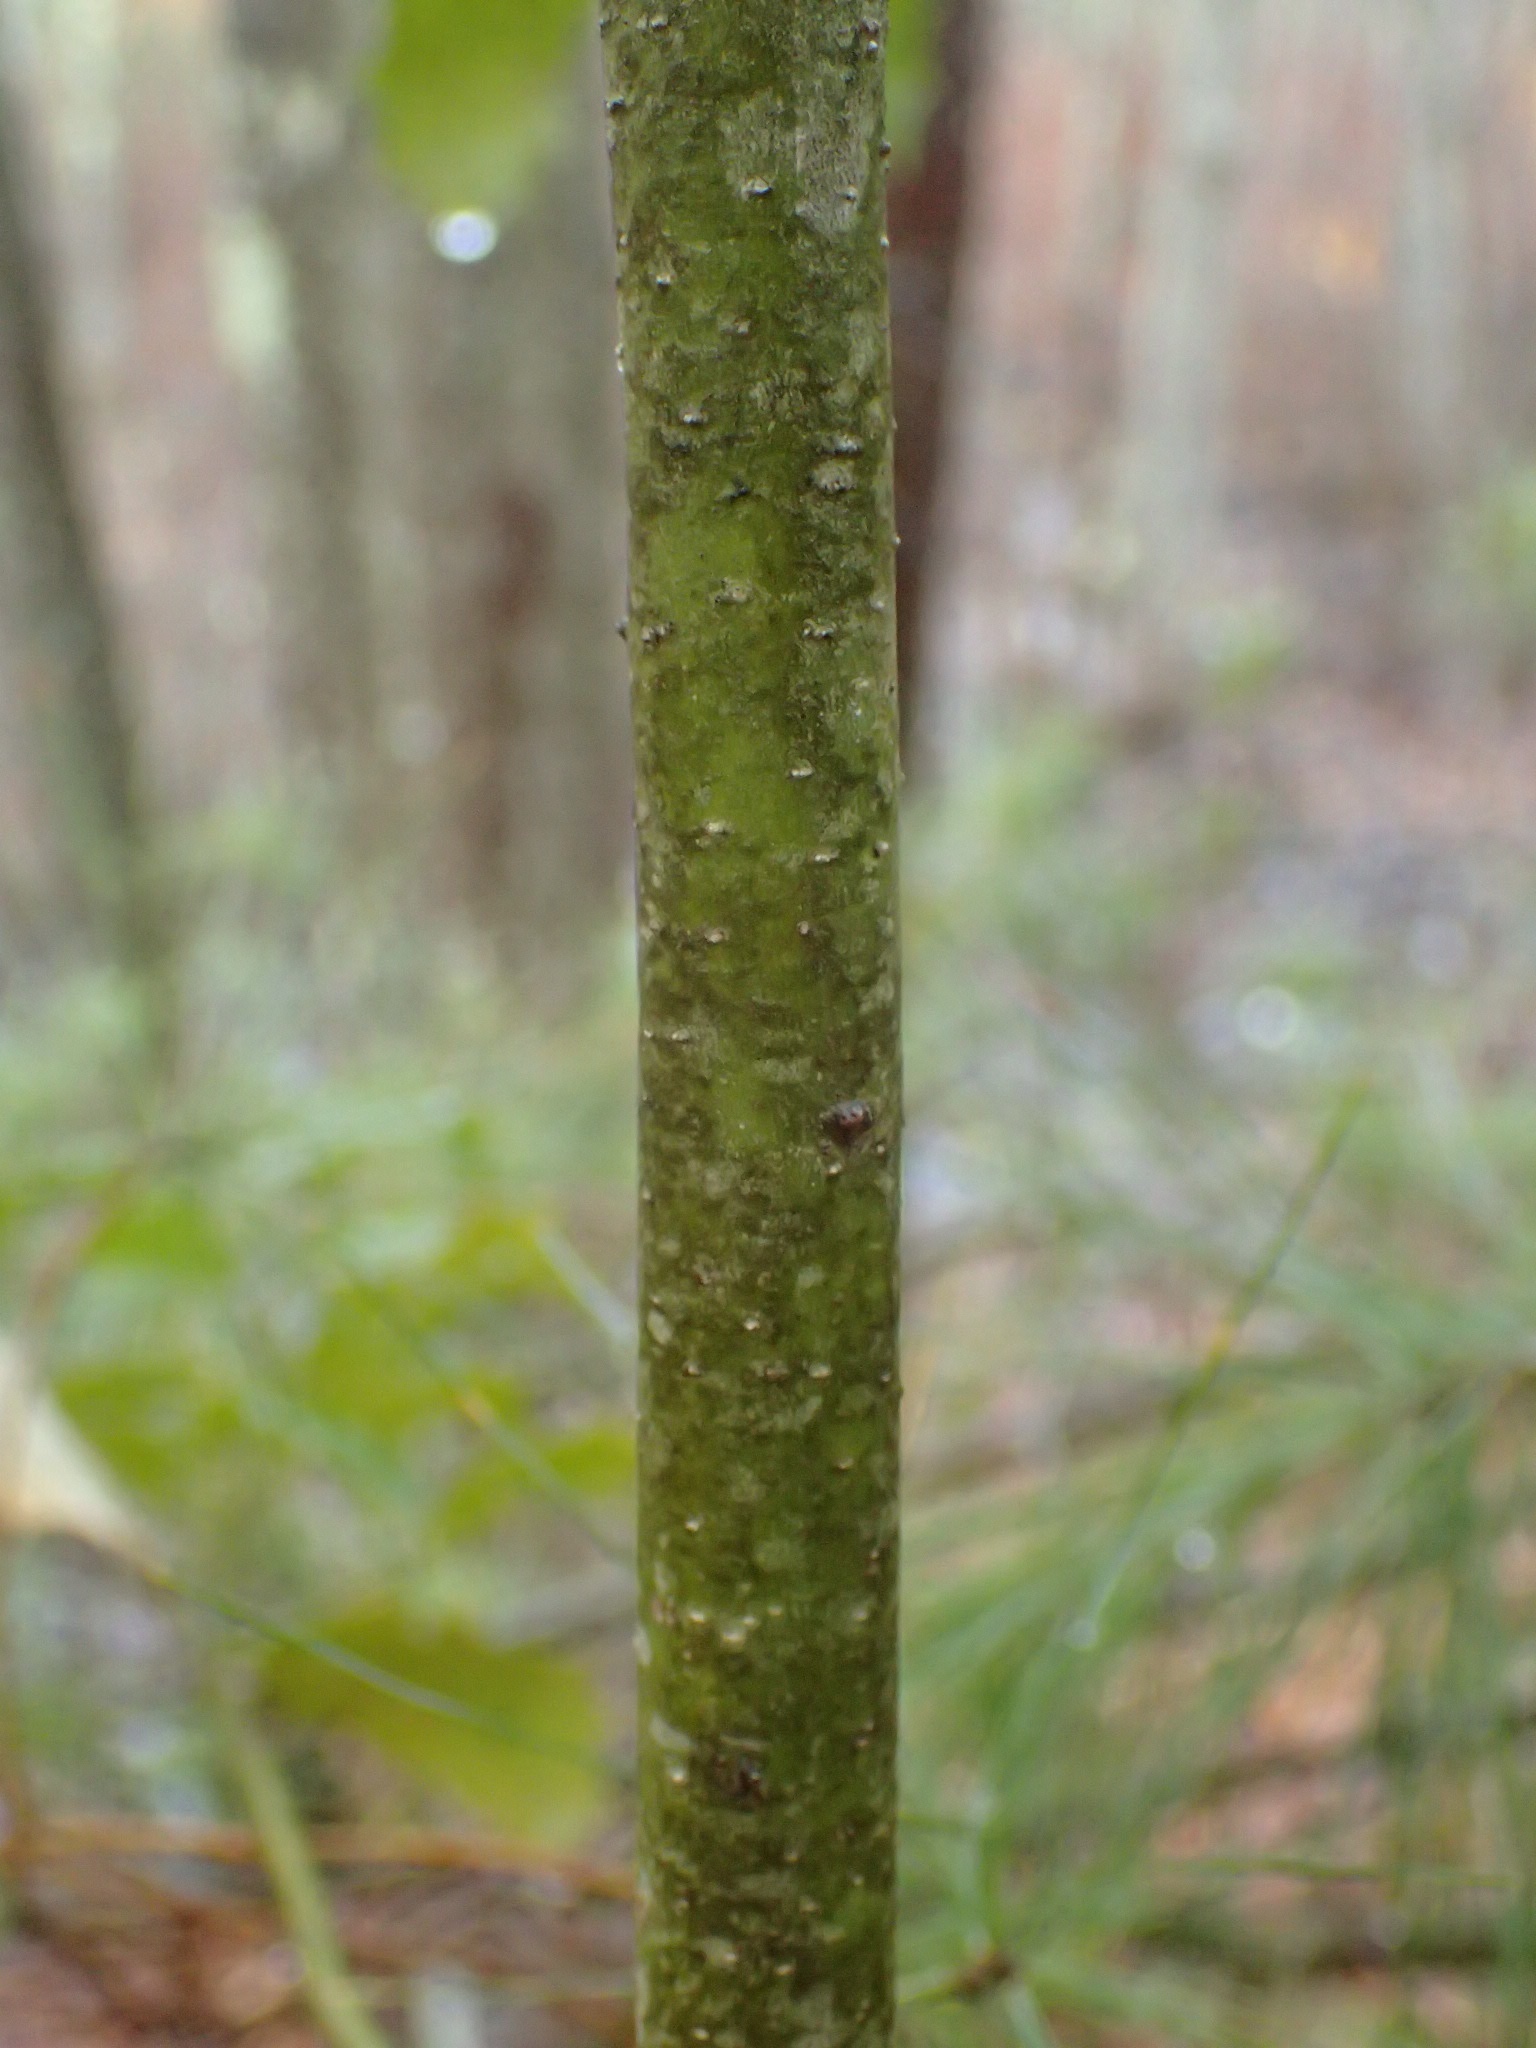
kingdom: Plantae
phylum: Tracheophyta
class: Magnoliopsida
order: Aquifoliales
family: Aquifoliaceae
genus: Ilex
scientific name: Ilex opaca
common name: American holly
